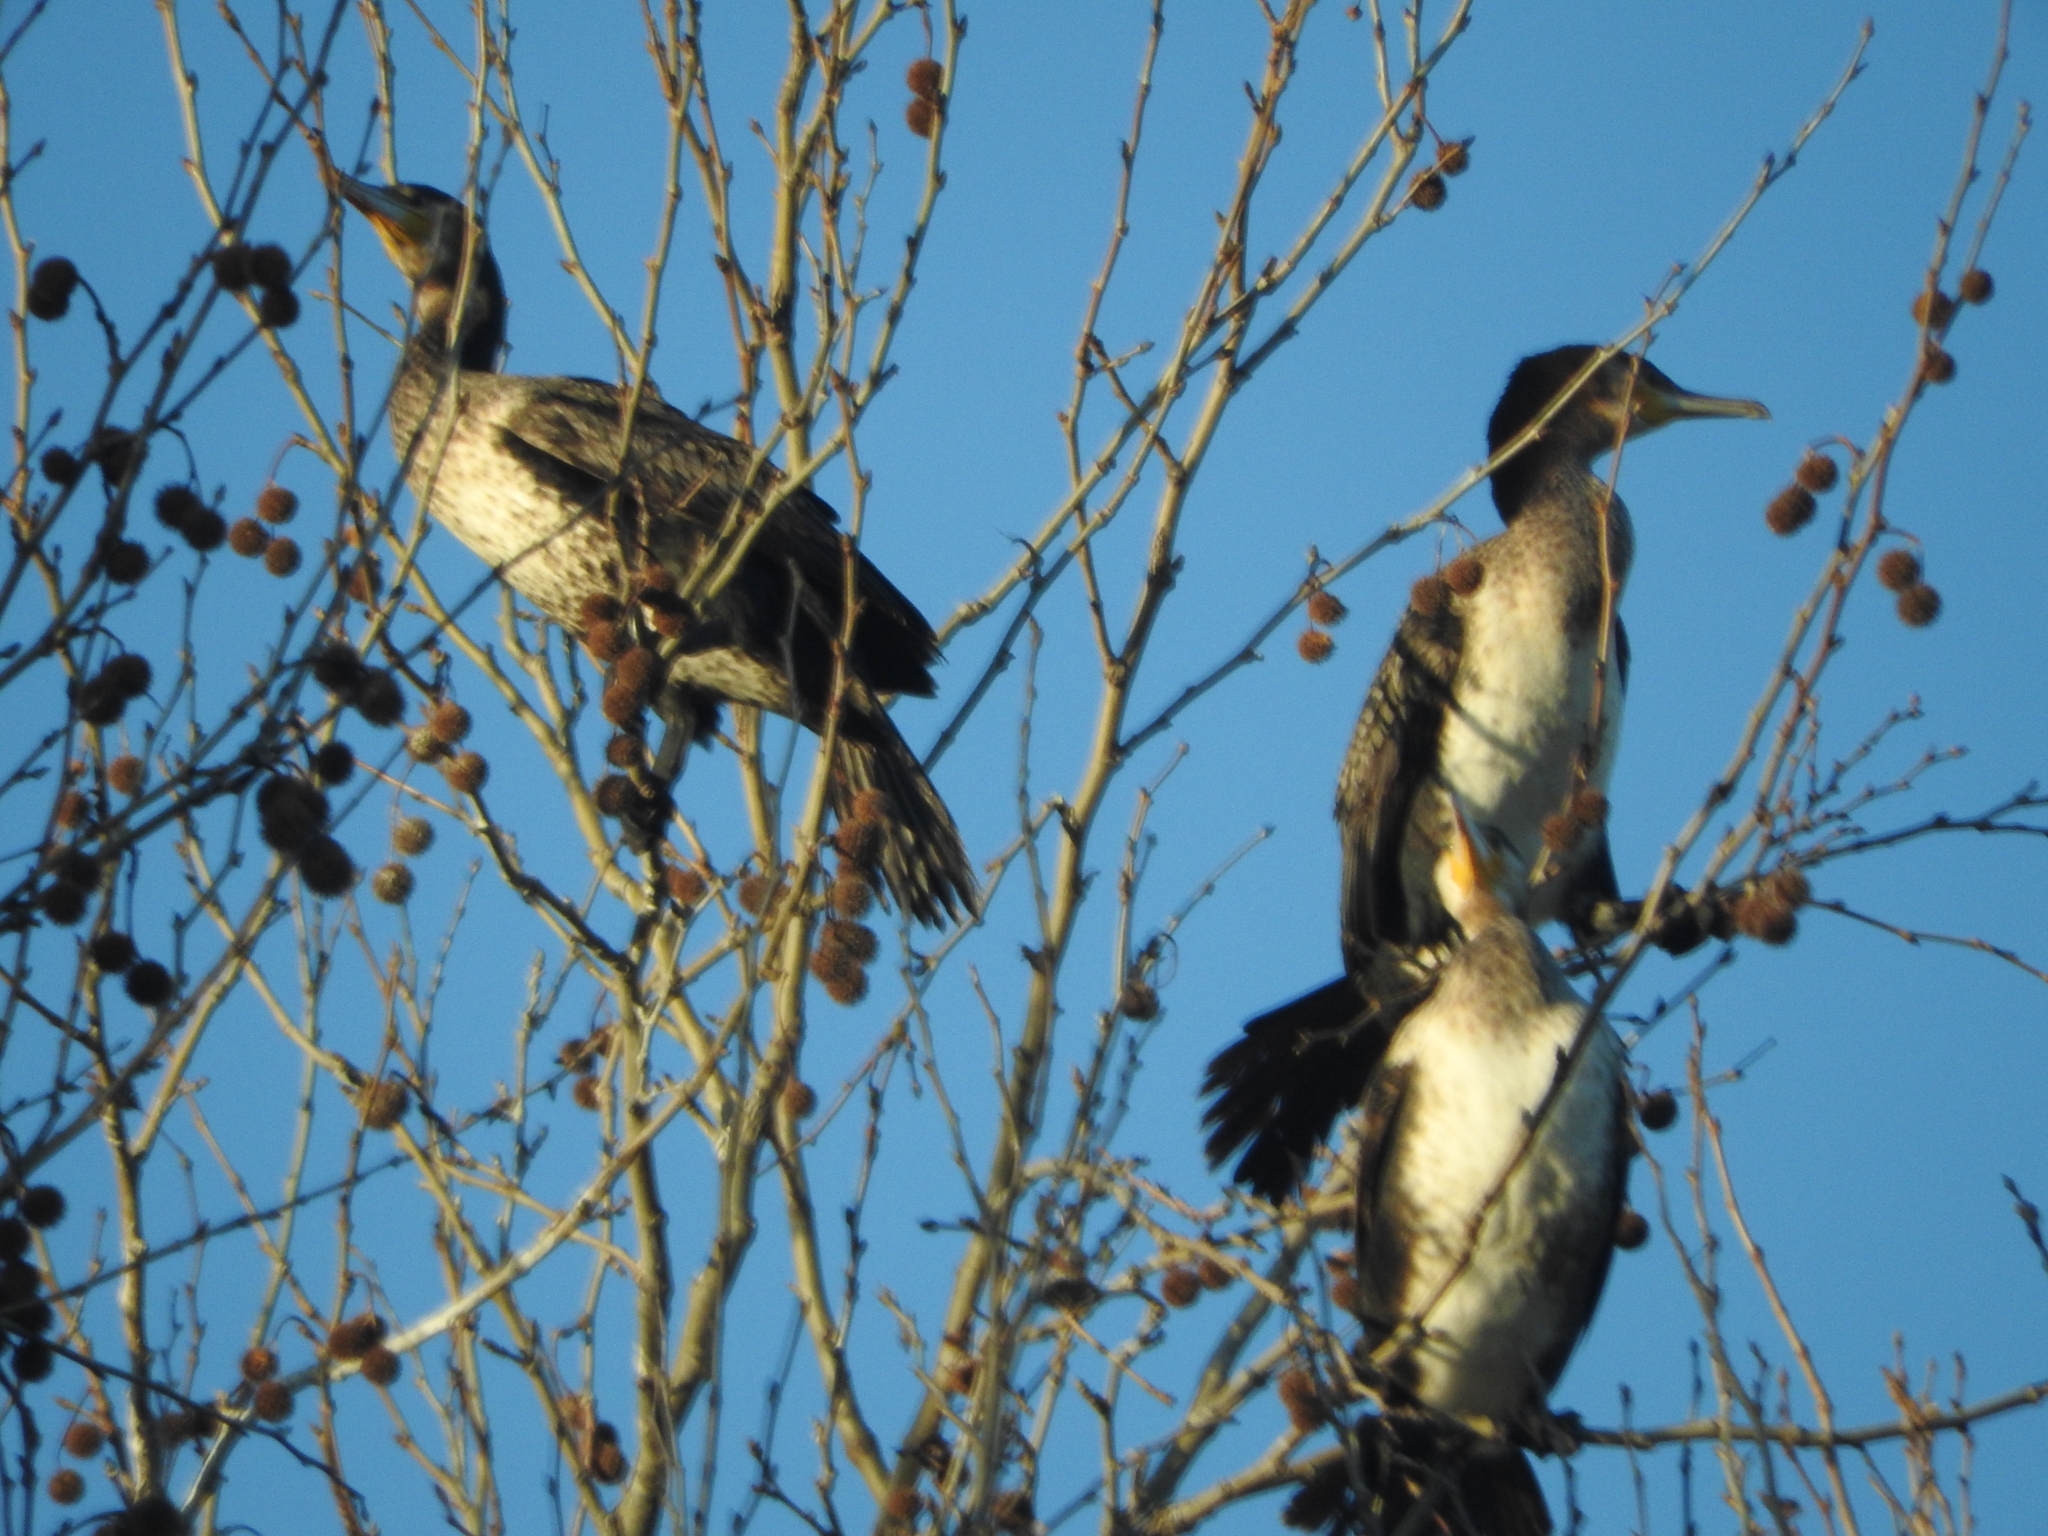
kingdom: Animalia
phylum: Chordata
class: Aves
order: Suliformes
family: Phalacrocoracidae
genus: Phalacrocorax
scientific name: Phalacrocorax carbo
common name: Great cormorant
